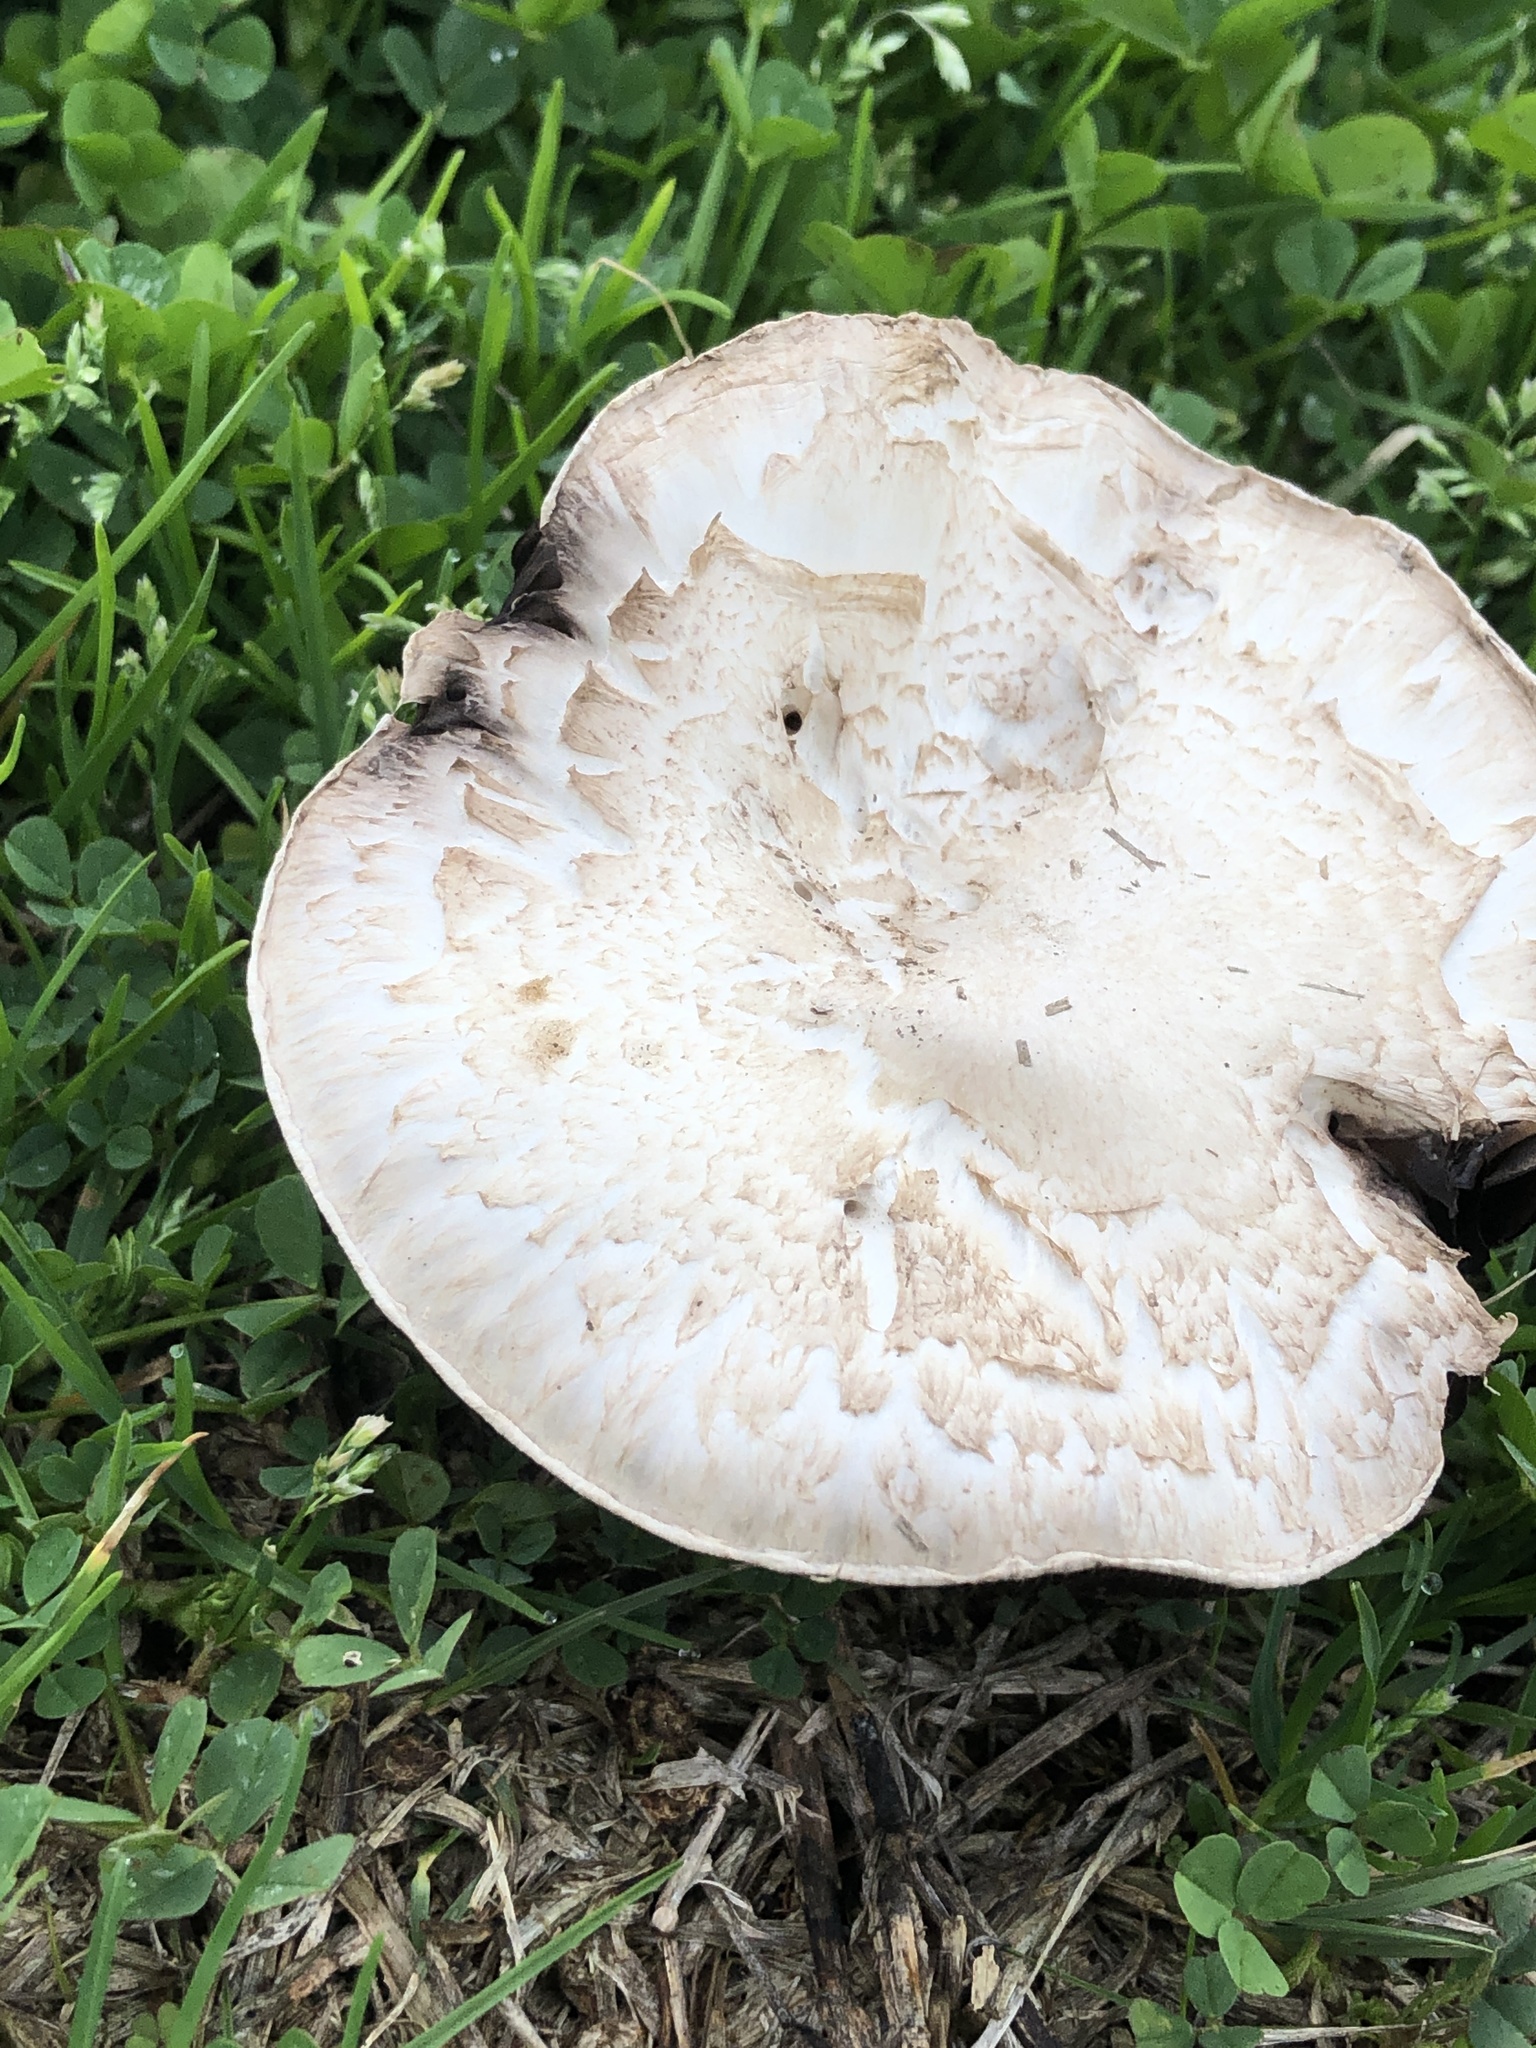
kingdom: Fungi
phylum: Basidiomycota
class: Agaricomycetes
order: Agaricales
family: Agaricaceae
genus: Agaricus
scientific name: Agaricus campestris
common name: Field mushroom
